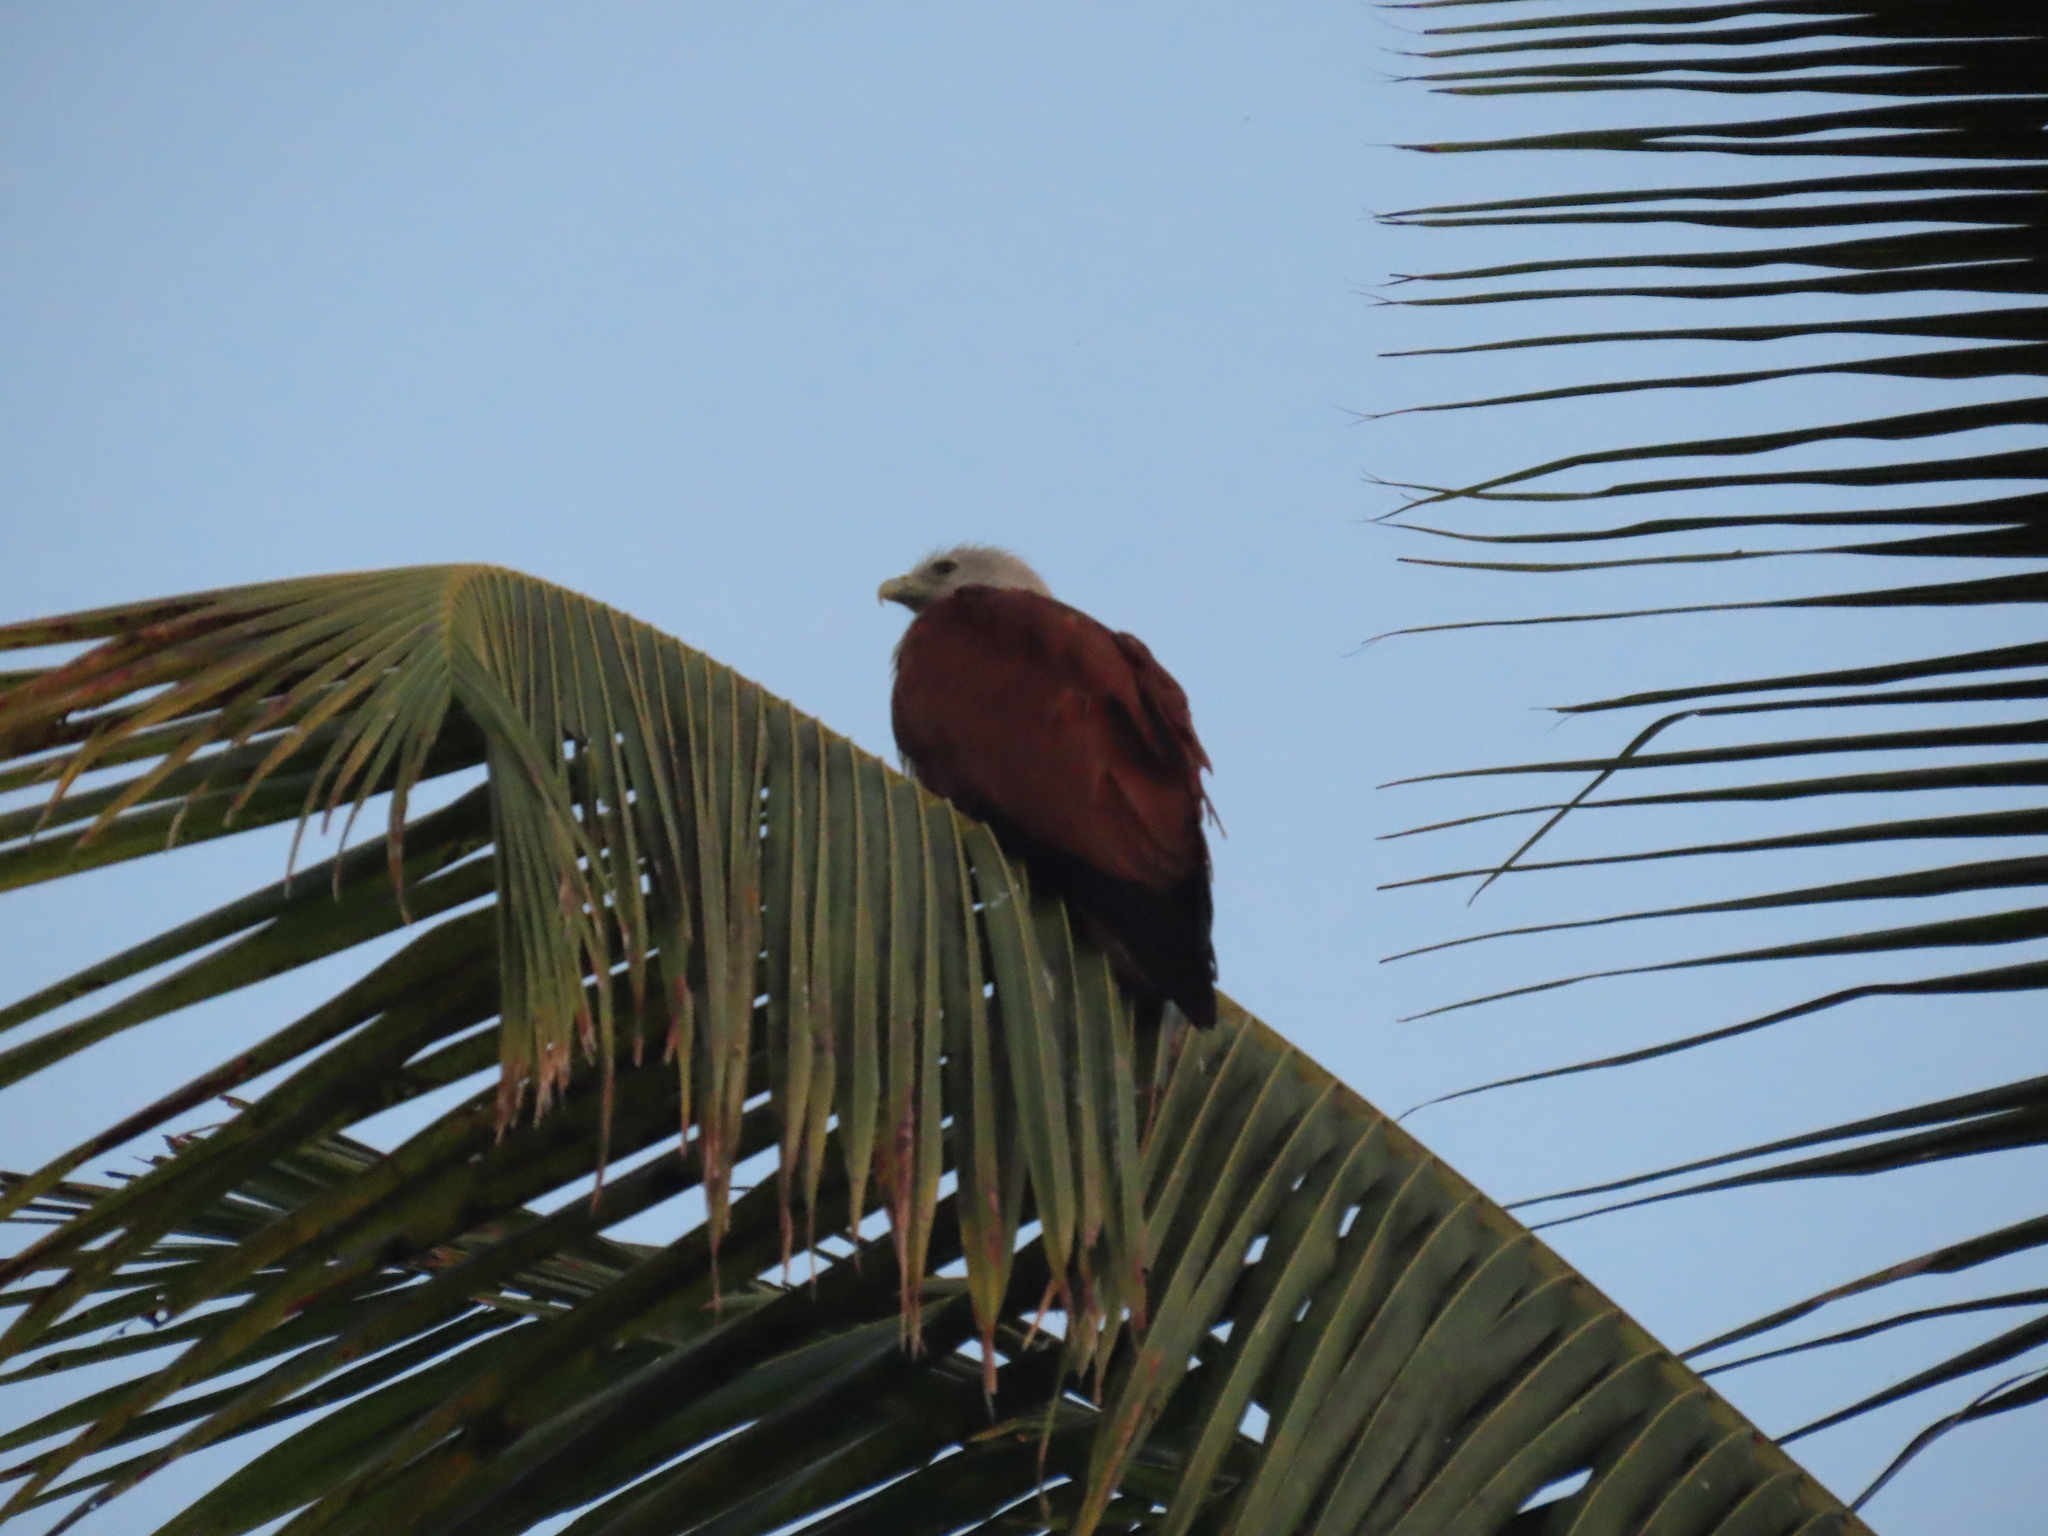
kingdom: Animalia
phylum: Chordata
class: Aves
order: Accipitriformes
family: Accipitridae
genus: Haliastur
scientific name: Haliastur indus
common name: Brahminy kite
